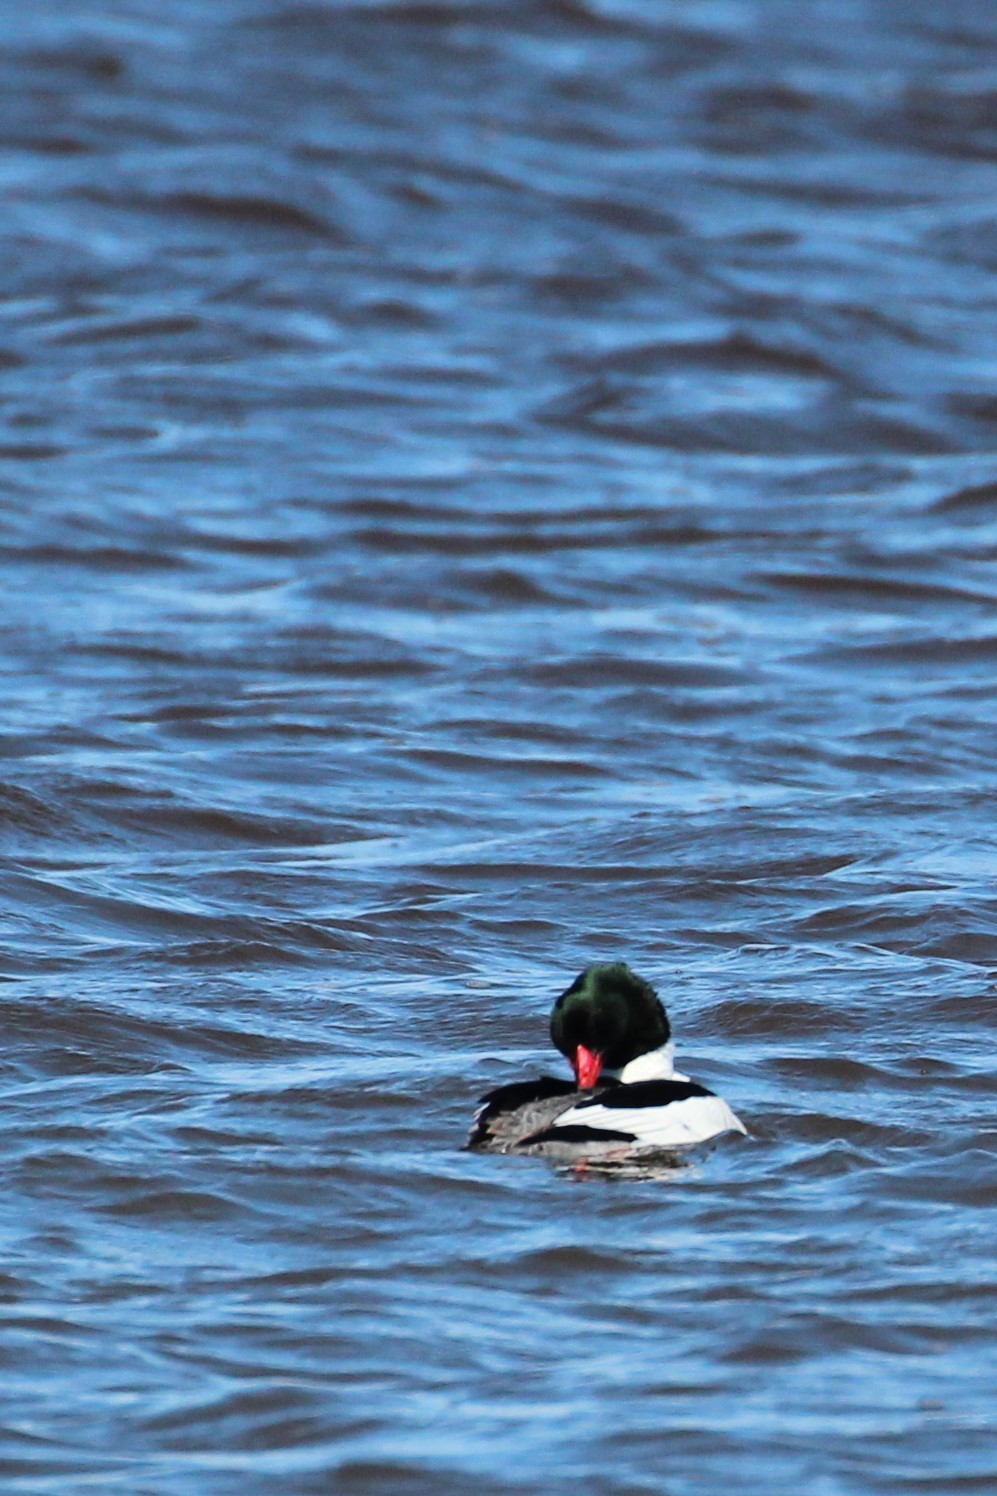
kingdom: Animalia
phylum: Chordata
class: Aves
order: Anseriformes
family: Anatidae
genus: Mergus
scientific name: Mergus merganser
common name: Common merganser
